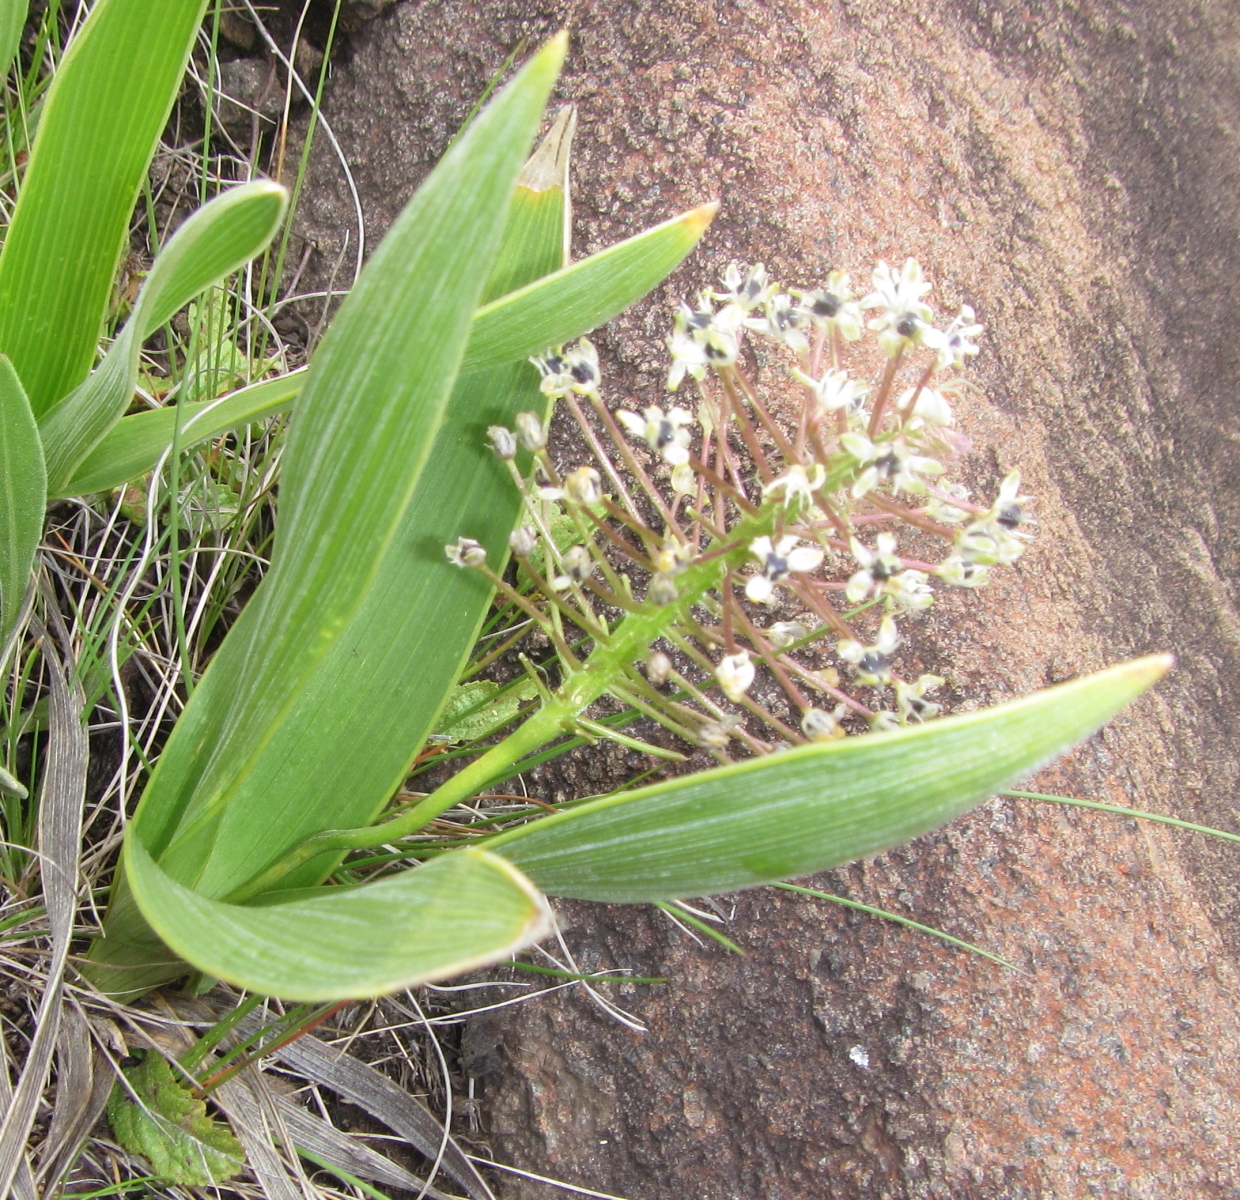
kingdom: Plantae
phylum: Tracheophyta
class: Liliopsida
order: Asparagales
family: Asparagaceae
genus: Schizocarphus
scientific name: Schizocarphus nervosus
